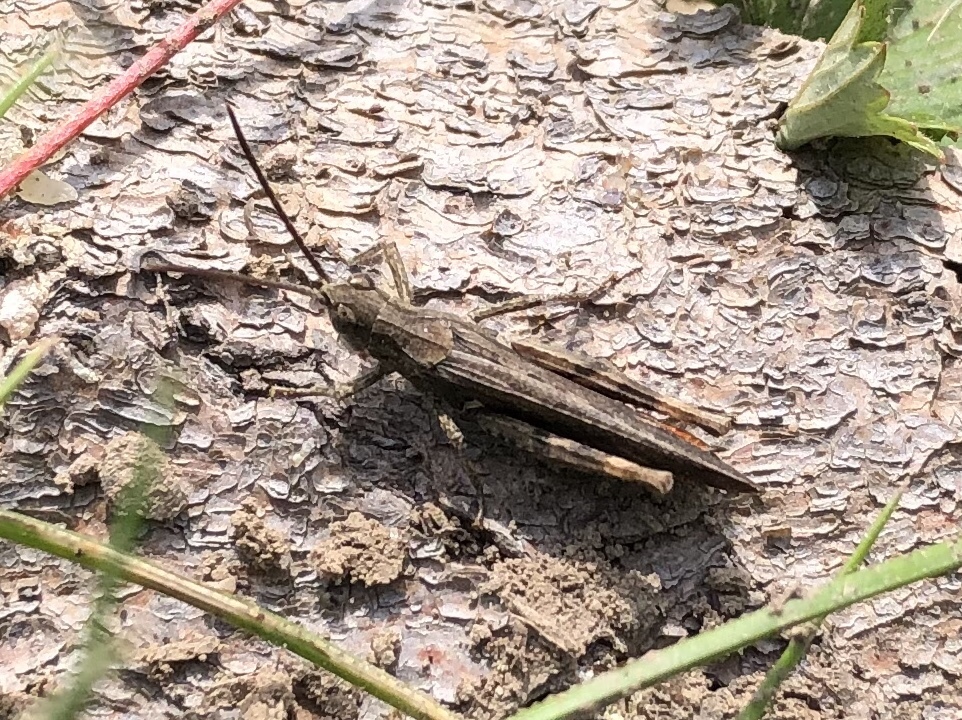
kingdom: Animalia
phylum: Arthropoda
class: Insecta
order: Orthoptera
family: Acrididae
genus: Chorthippus
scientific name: Chorthippus brunneus
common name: Field grasshopper
